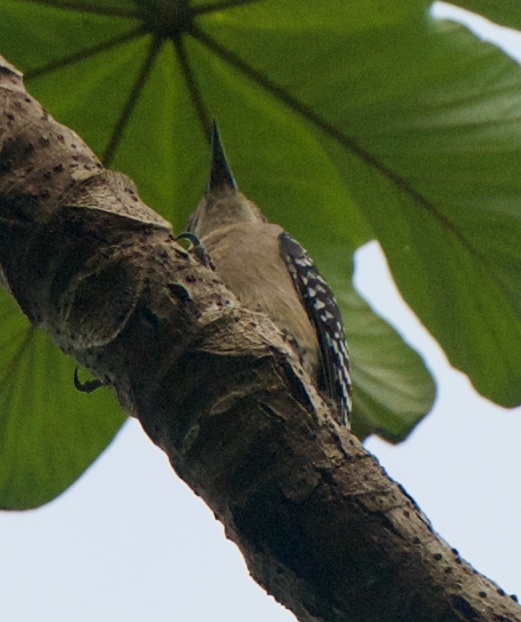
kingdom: Animalia
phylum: Chordata
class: Aves
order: Piciformes
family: Picidae
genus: Melanerpes
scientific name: Melanerpes rubricapillus
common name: Red-crowned woodpecker
